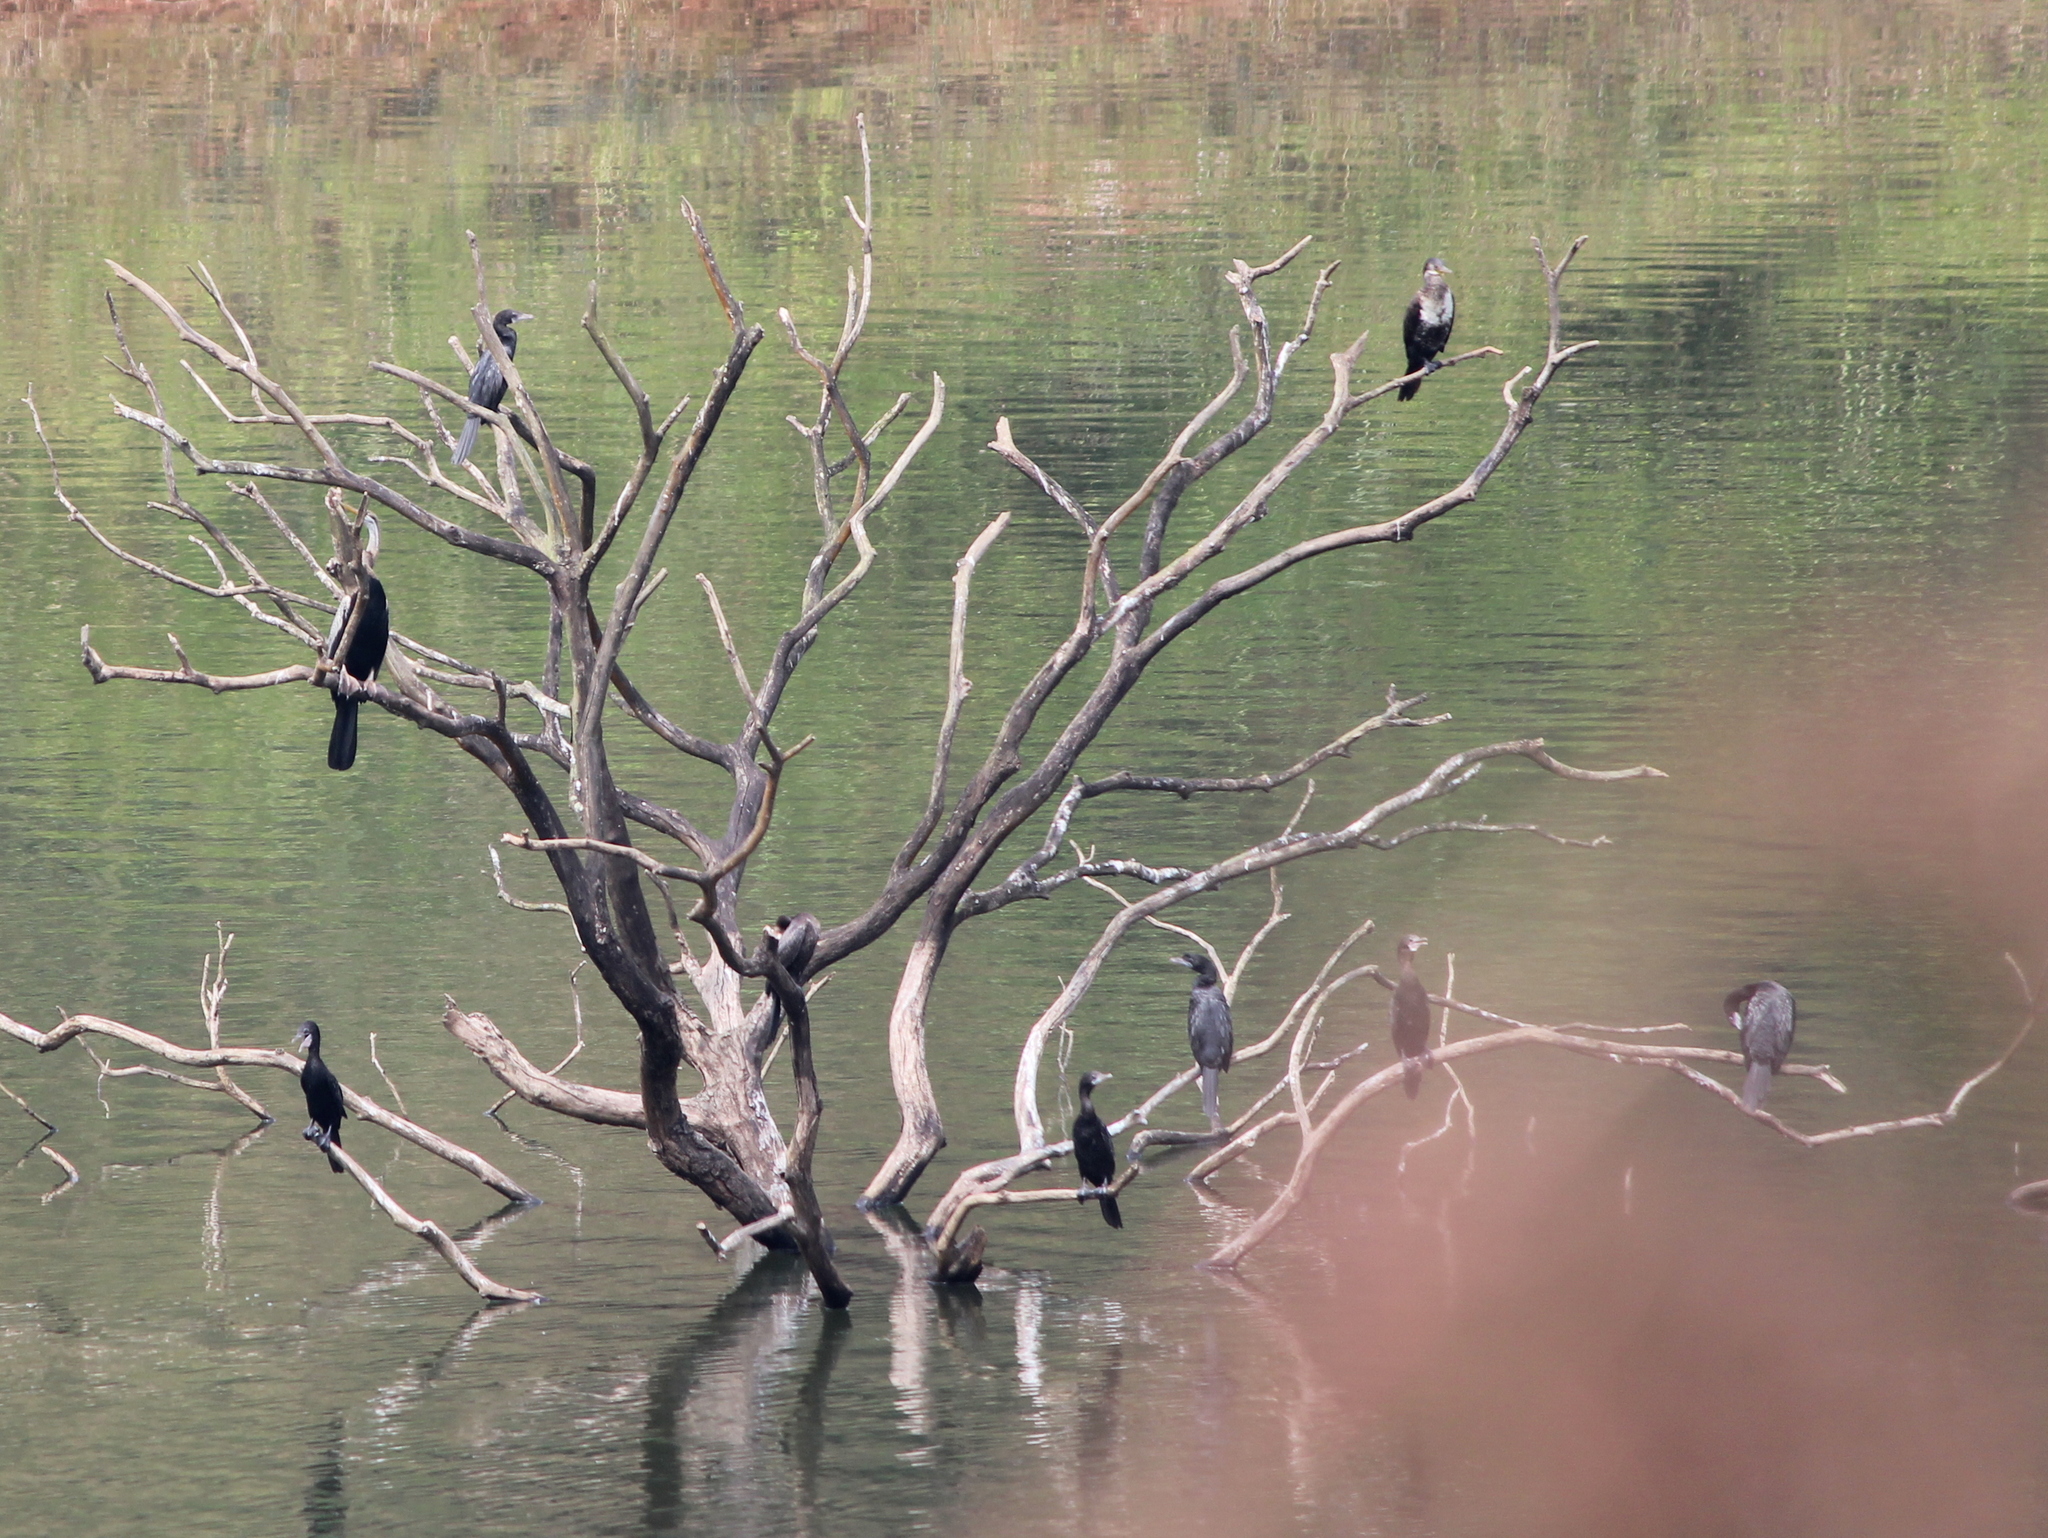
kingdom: Animalia
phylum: Chordata
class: Aves
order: Suliformes
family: Phalacrocoracidae
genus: Microcarbo
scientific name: Microcarbo niger
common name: Little cormorant
